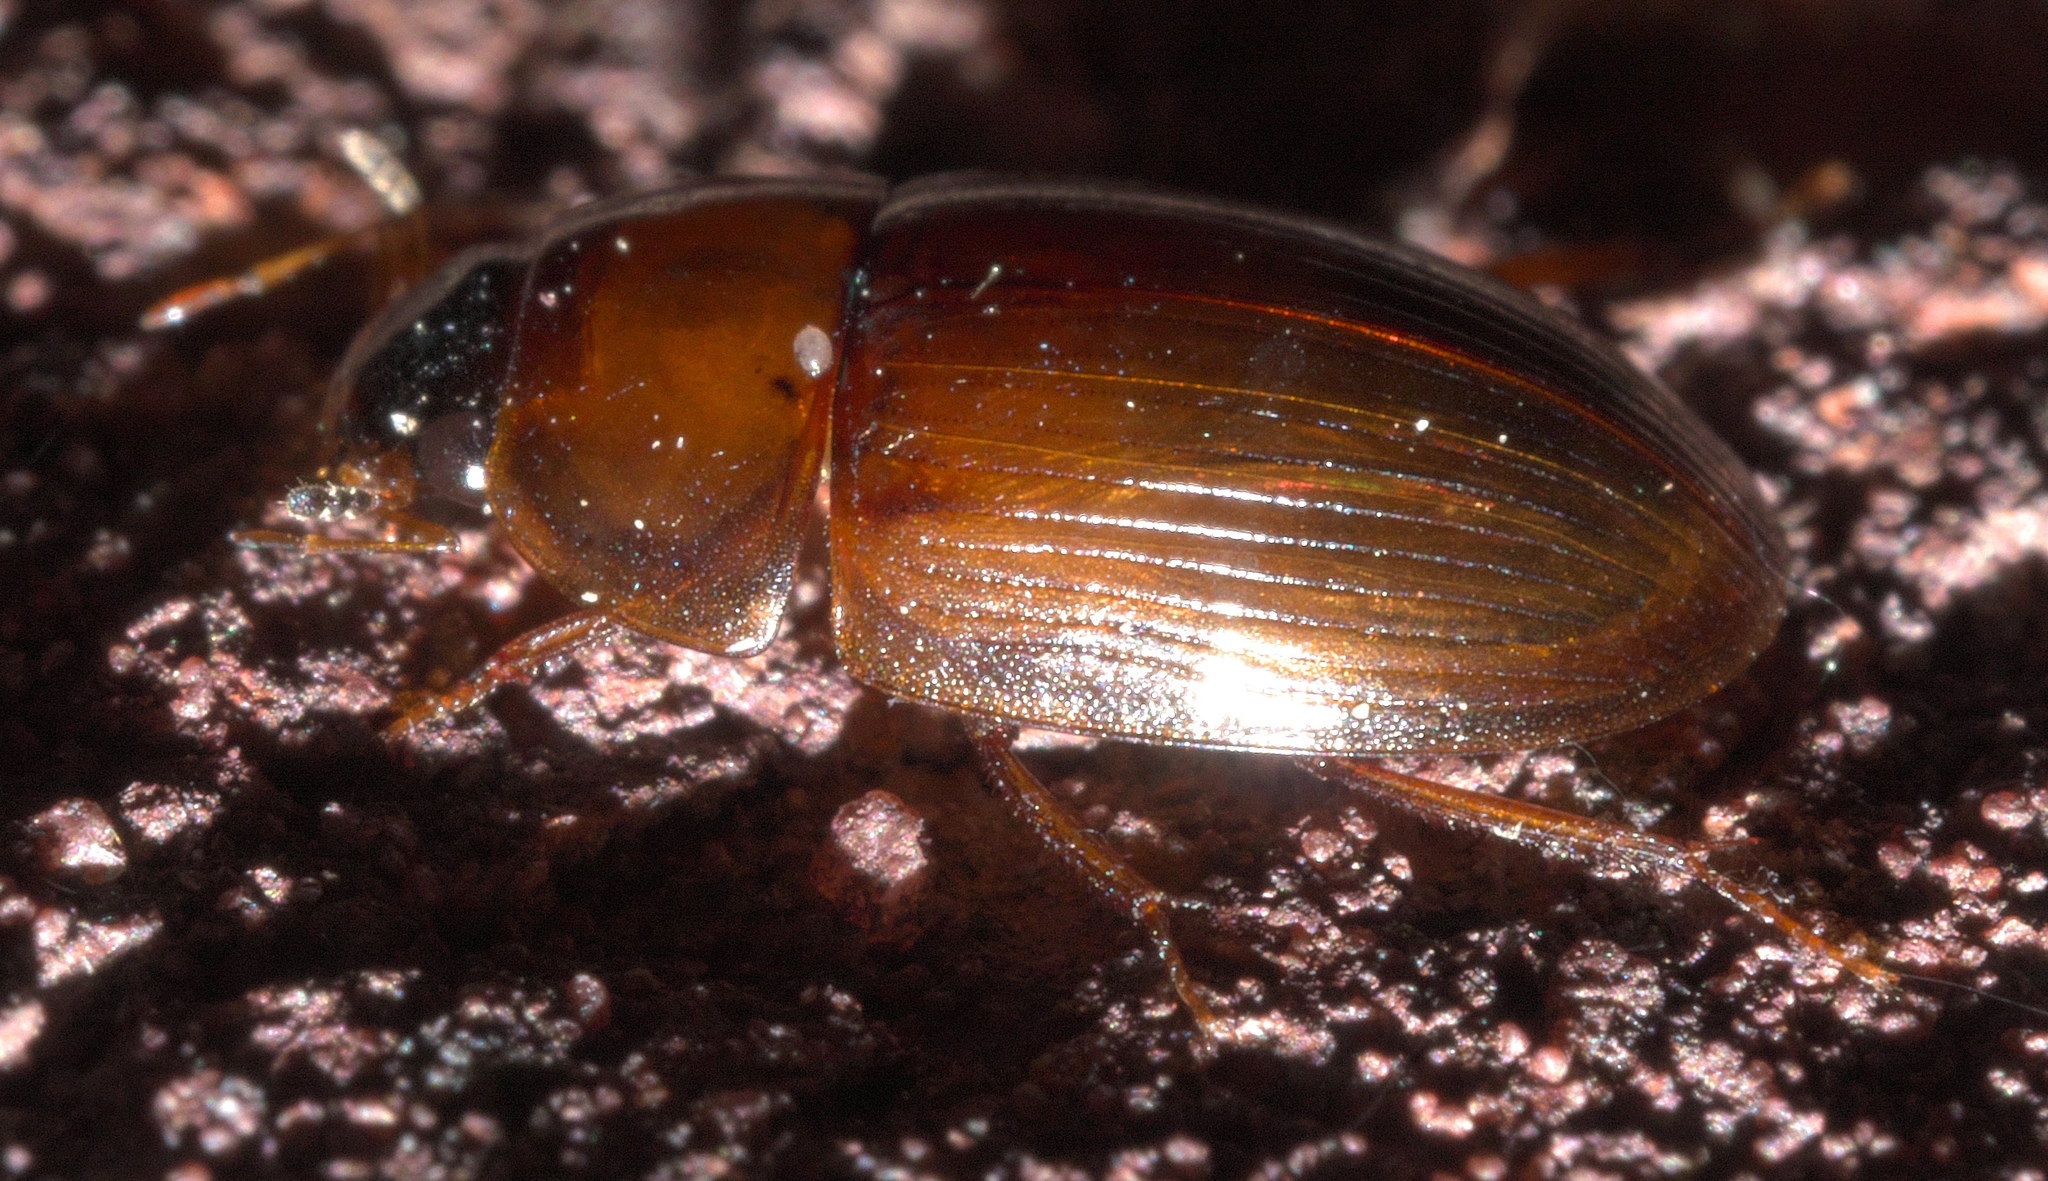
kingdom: Animalia
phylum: Arthropoda
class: Insecta
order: Coleoptera
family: Hydrophilidae
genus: Cymbiodyta
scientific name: Cymbiodyta bifida
